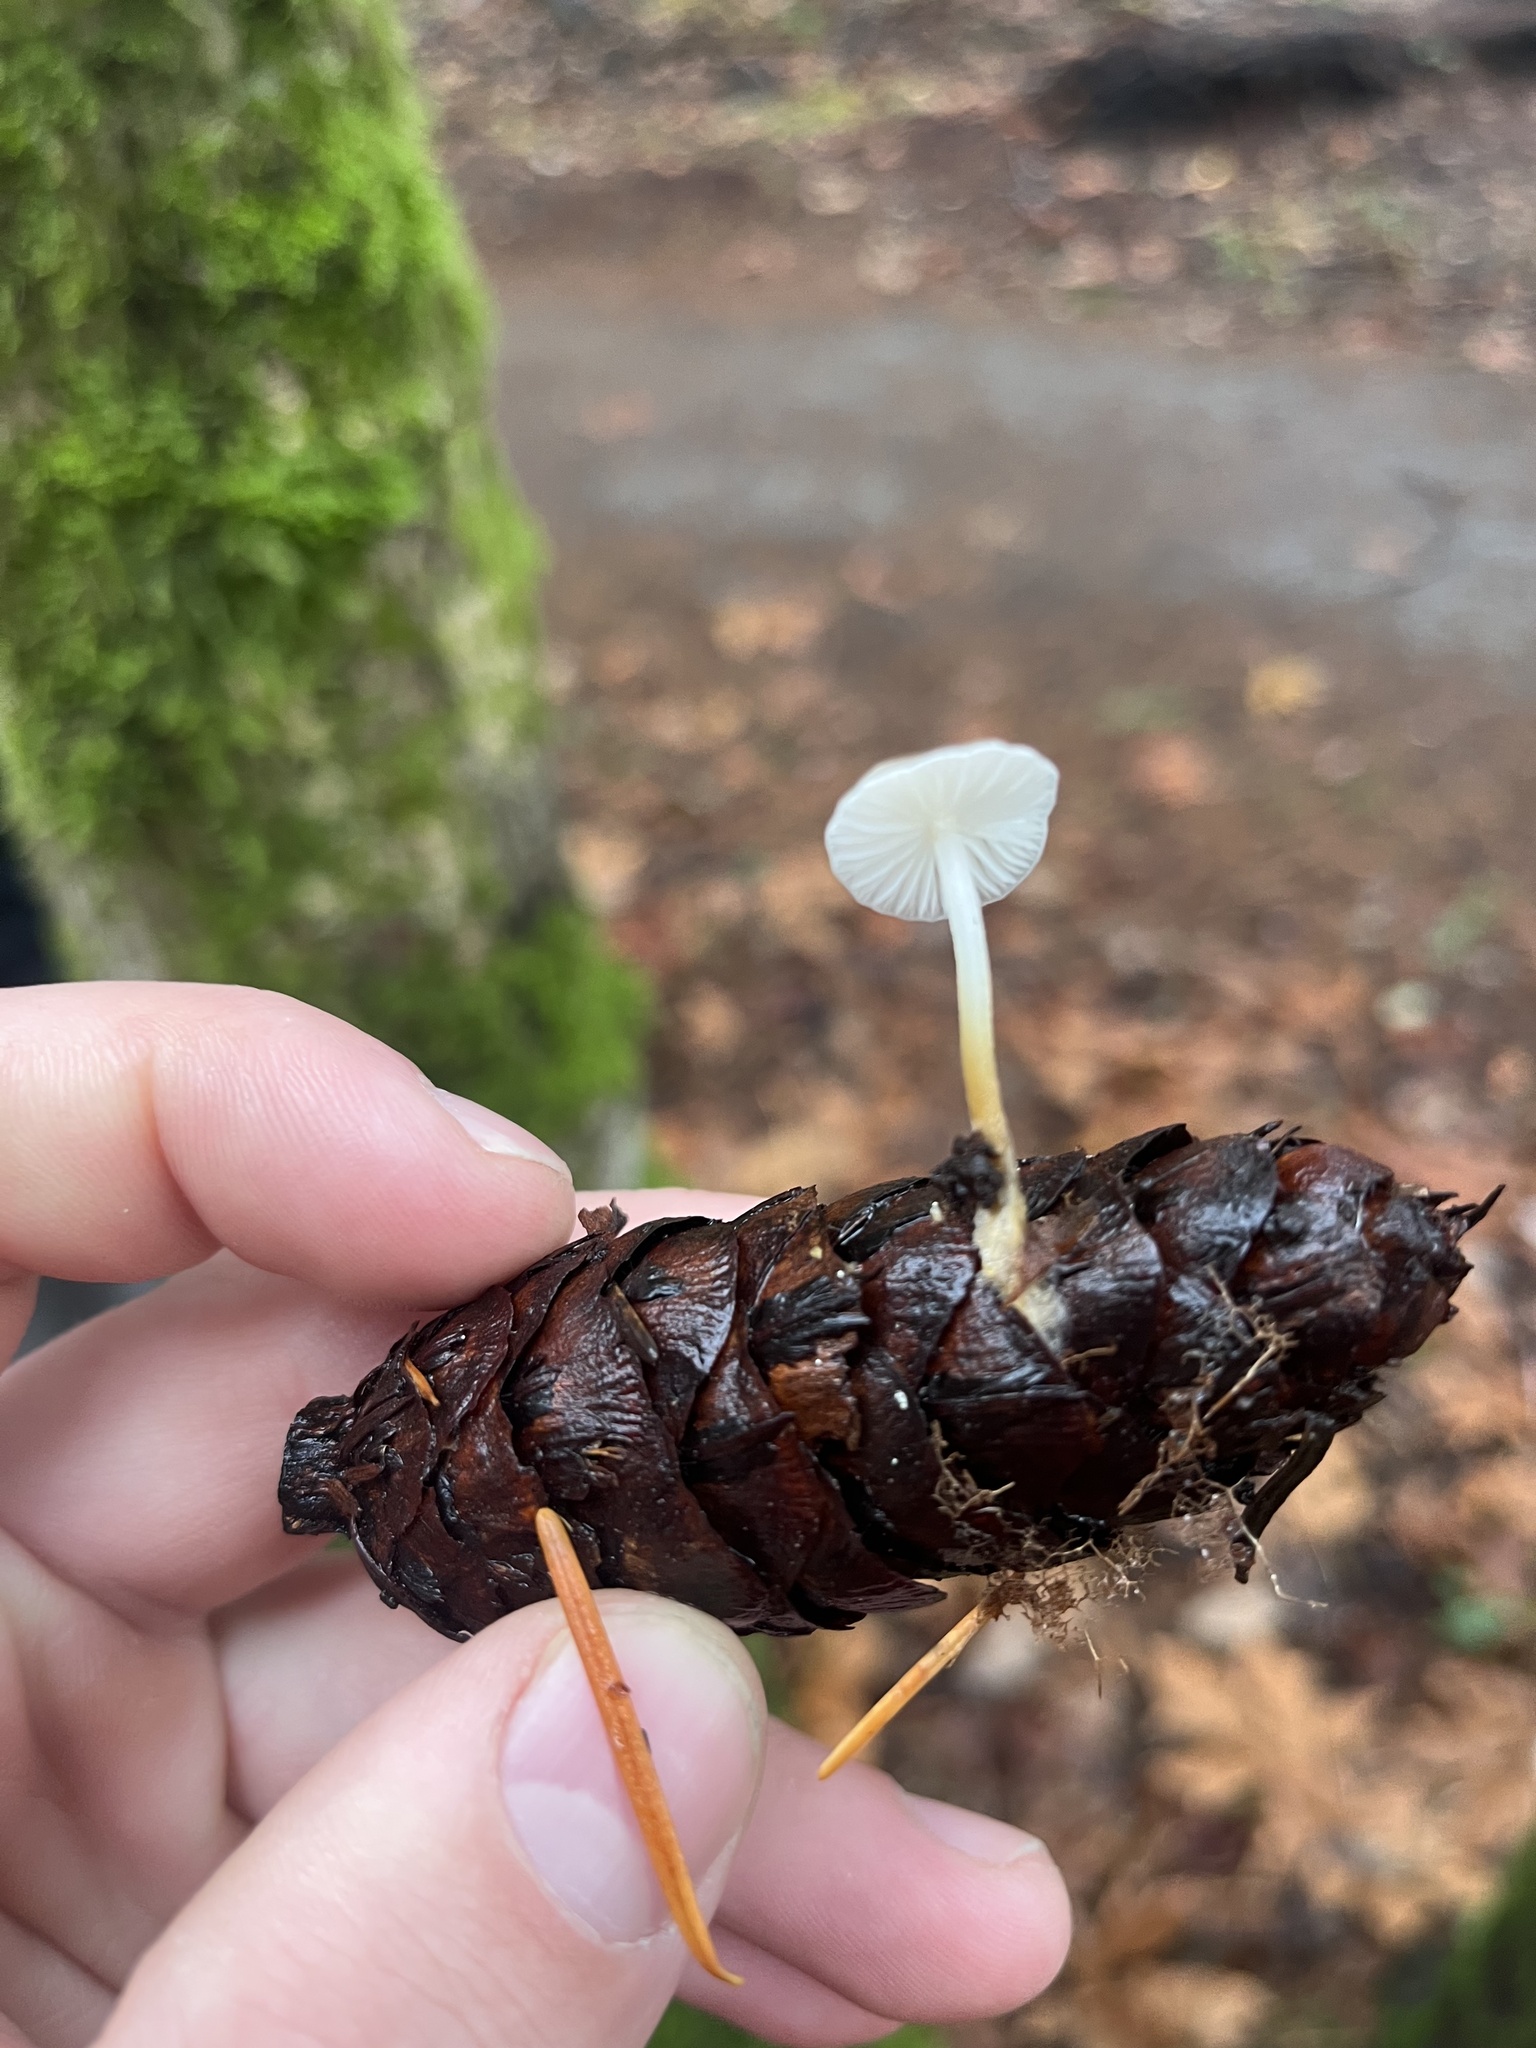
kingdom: Fungi
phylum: Basidiomycota
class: Agaricomycetes
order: Agaricales
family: Physalacriaceae
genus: Strobilurus
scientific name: Strobilurus trullisatus
